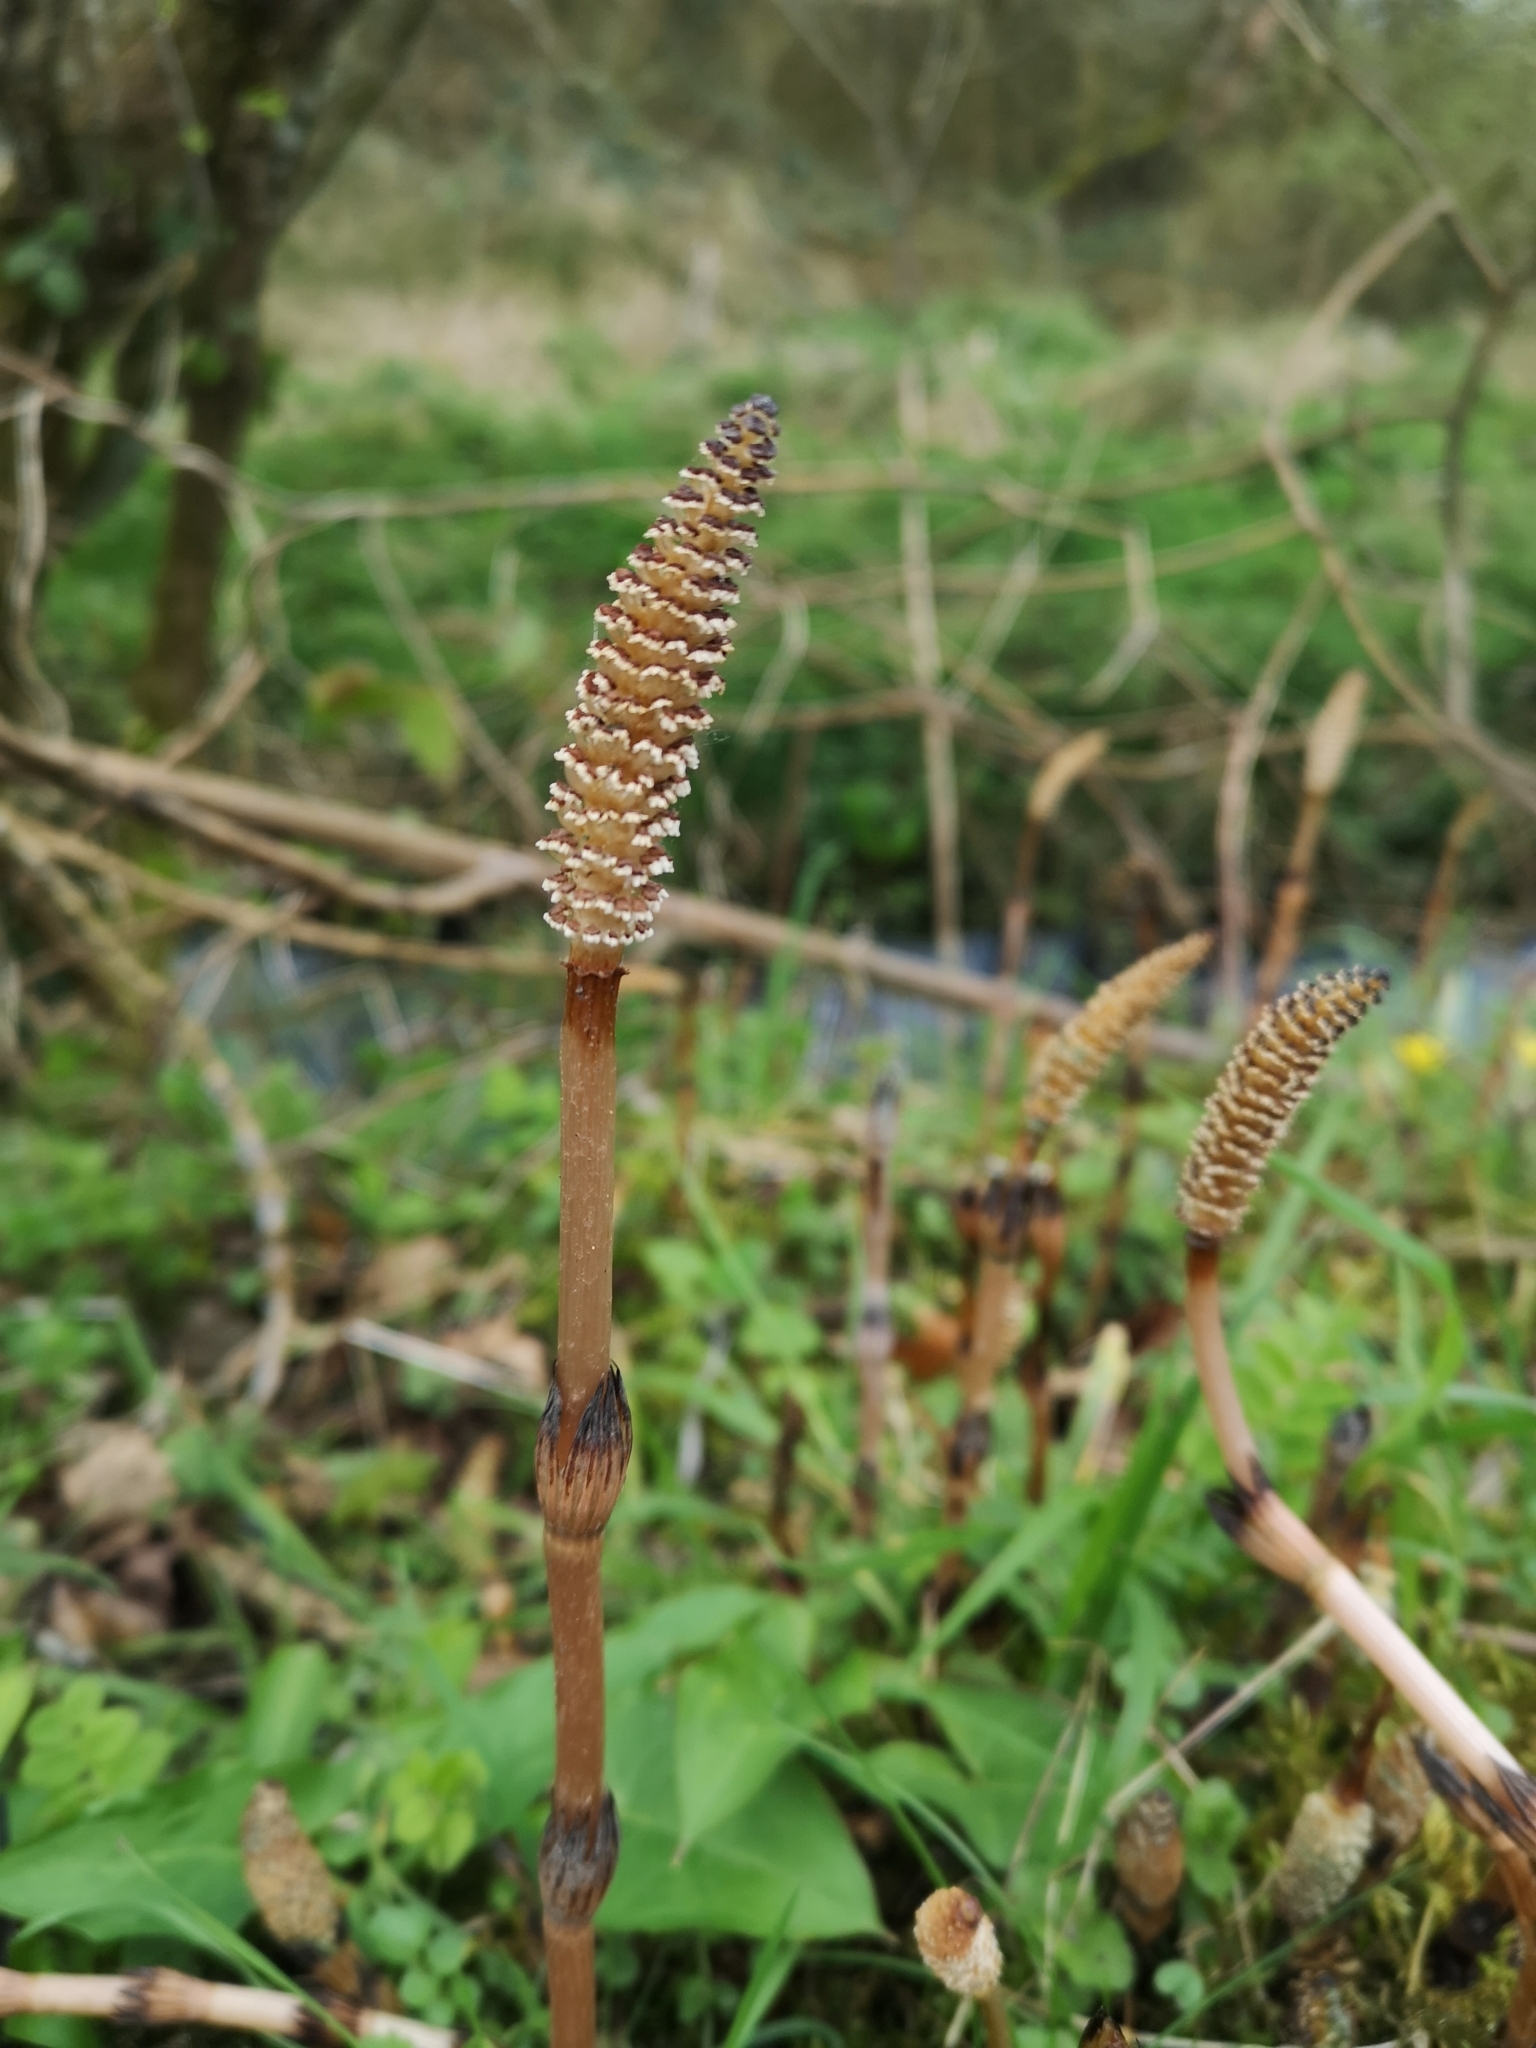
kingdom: Plantae
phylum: Tracheophyta
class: Polypodiopsida
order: Equisetales
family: Equisetaceae
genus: Equisetum
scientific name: Equisetum arvense
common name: Field horsetail
